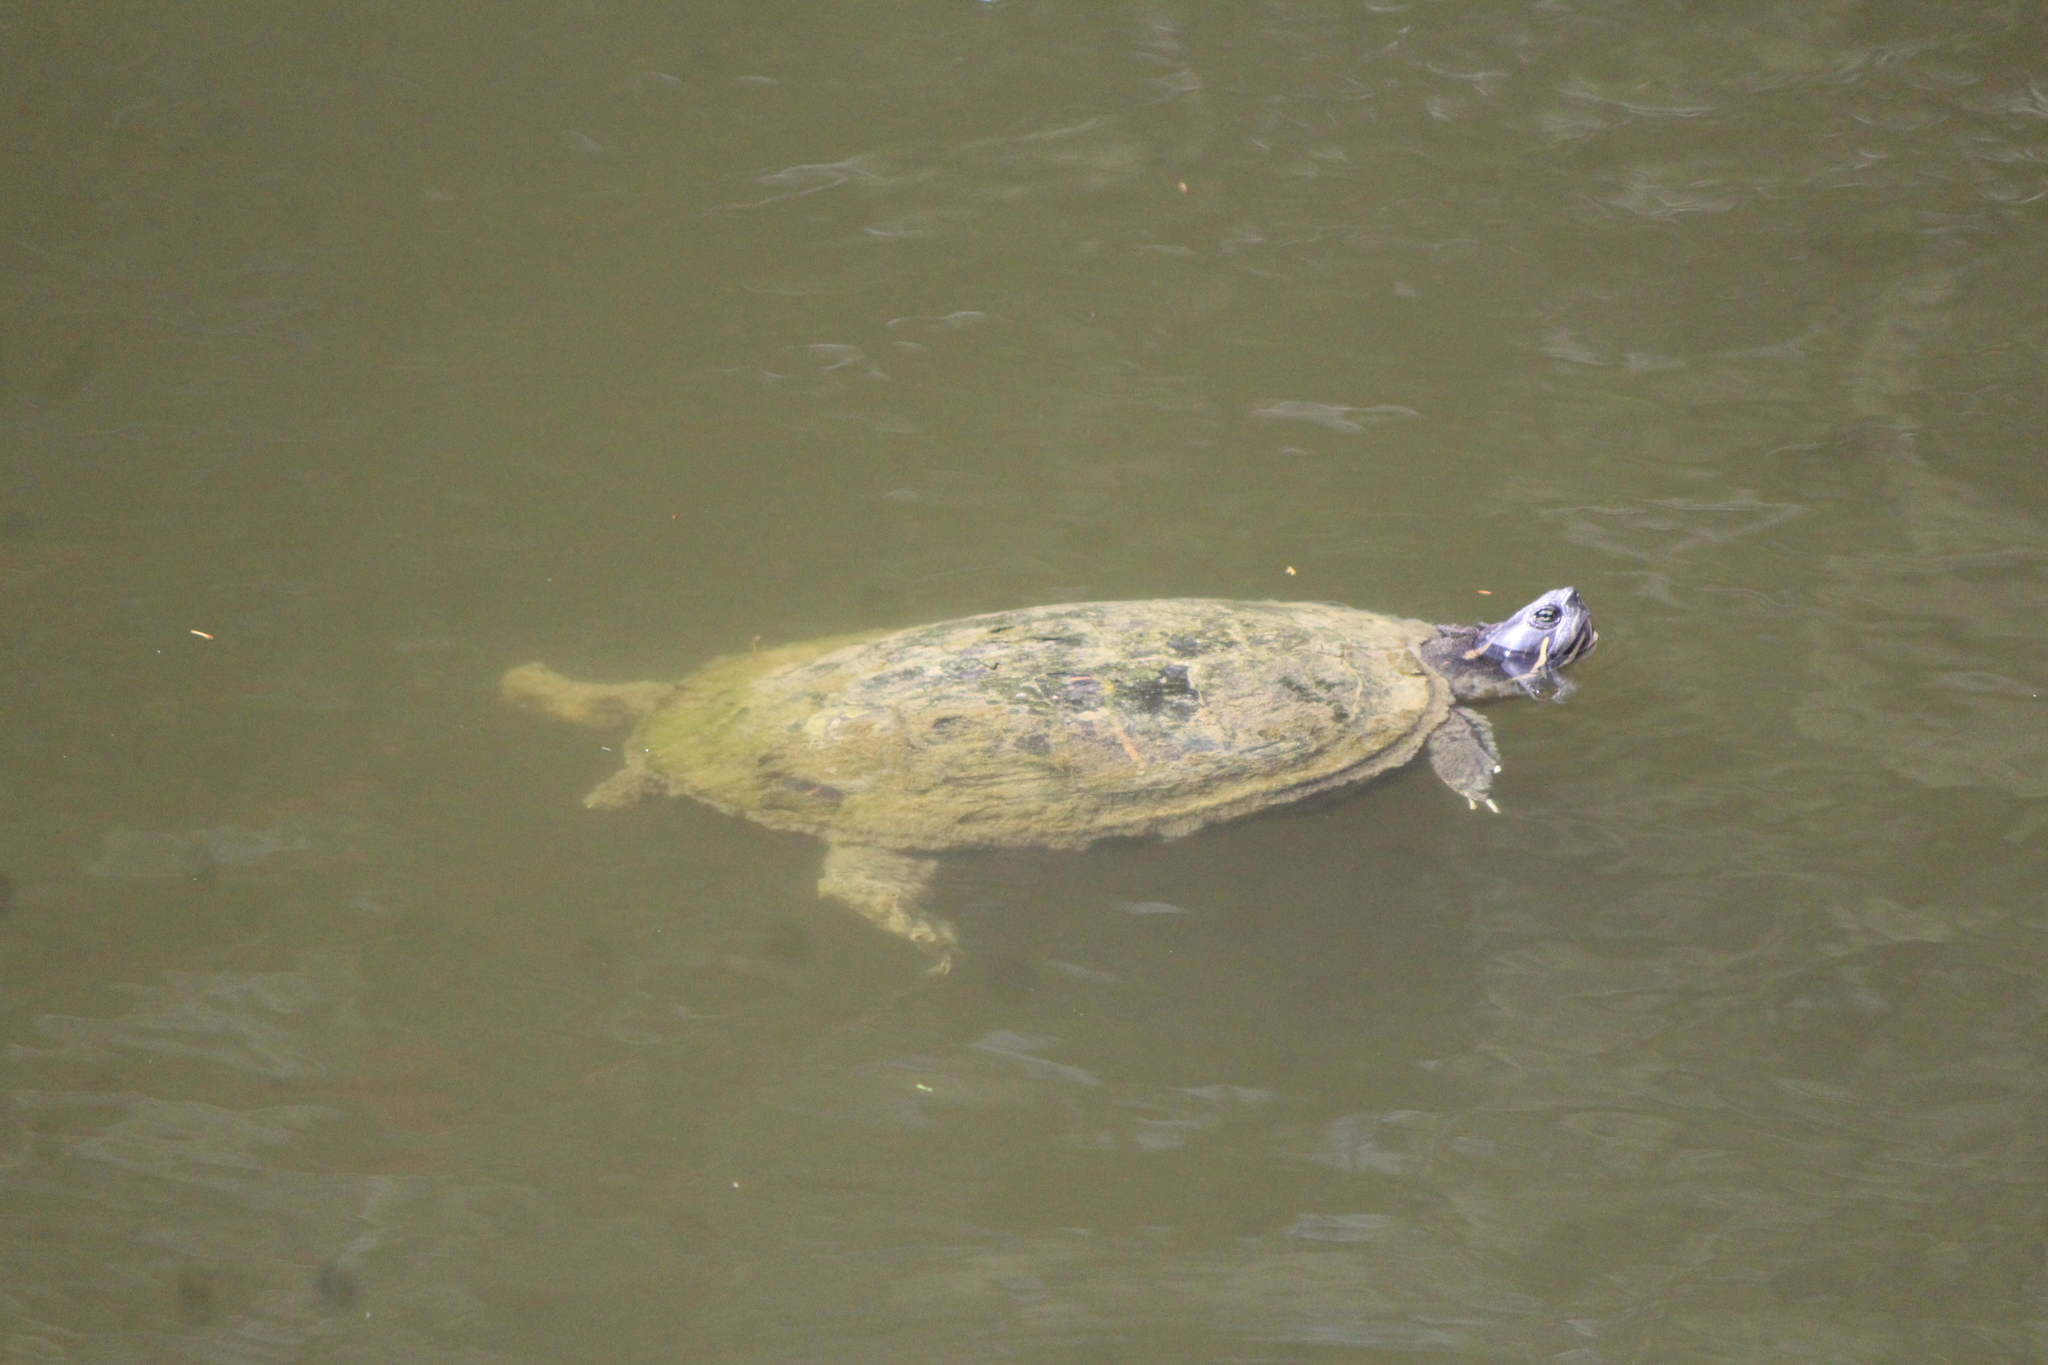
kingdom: Animalia
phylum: Chordata
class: Testudines
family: Emydidae
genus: Pseudemys
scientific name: Pseudemys concinna
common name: Eastern river cooter
